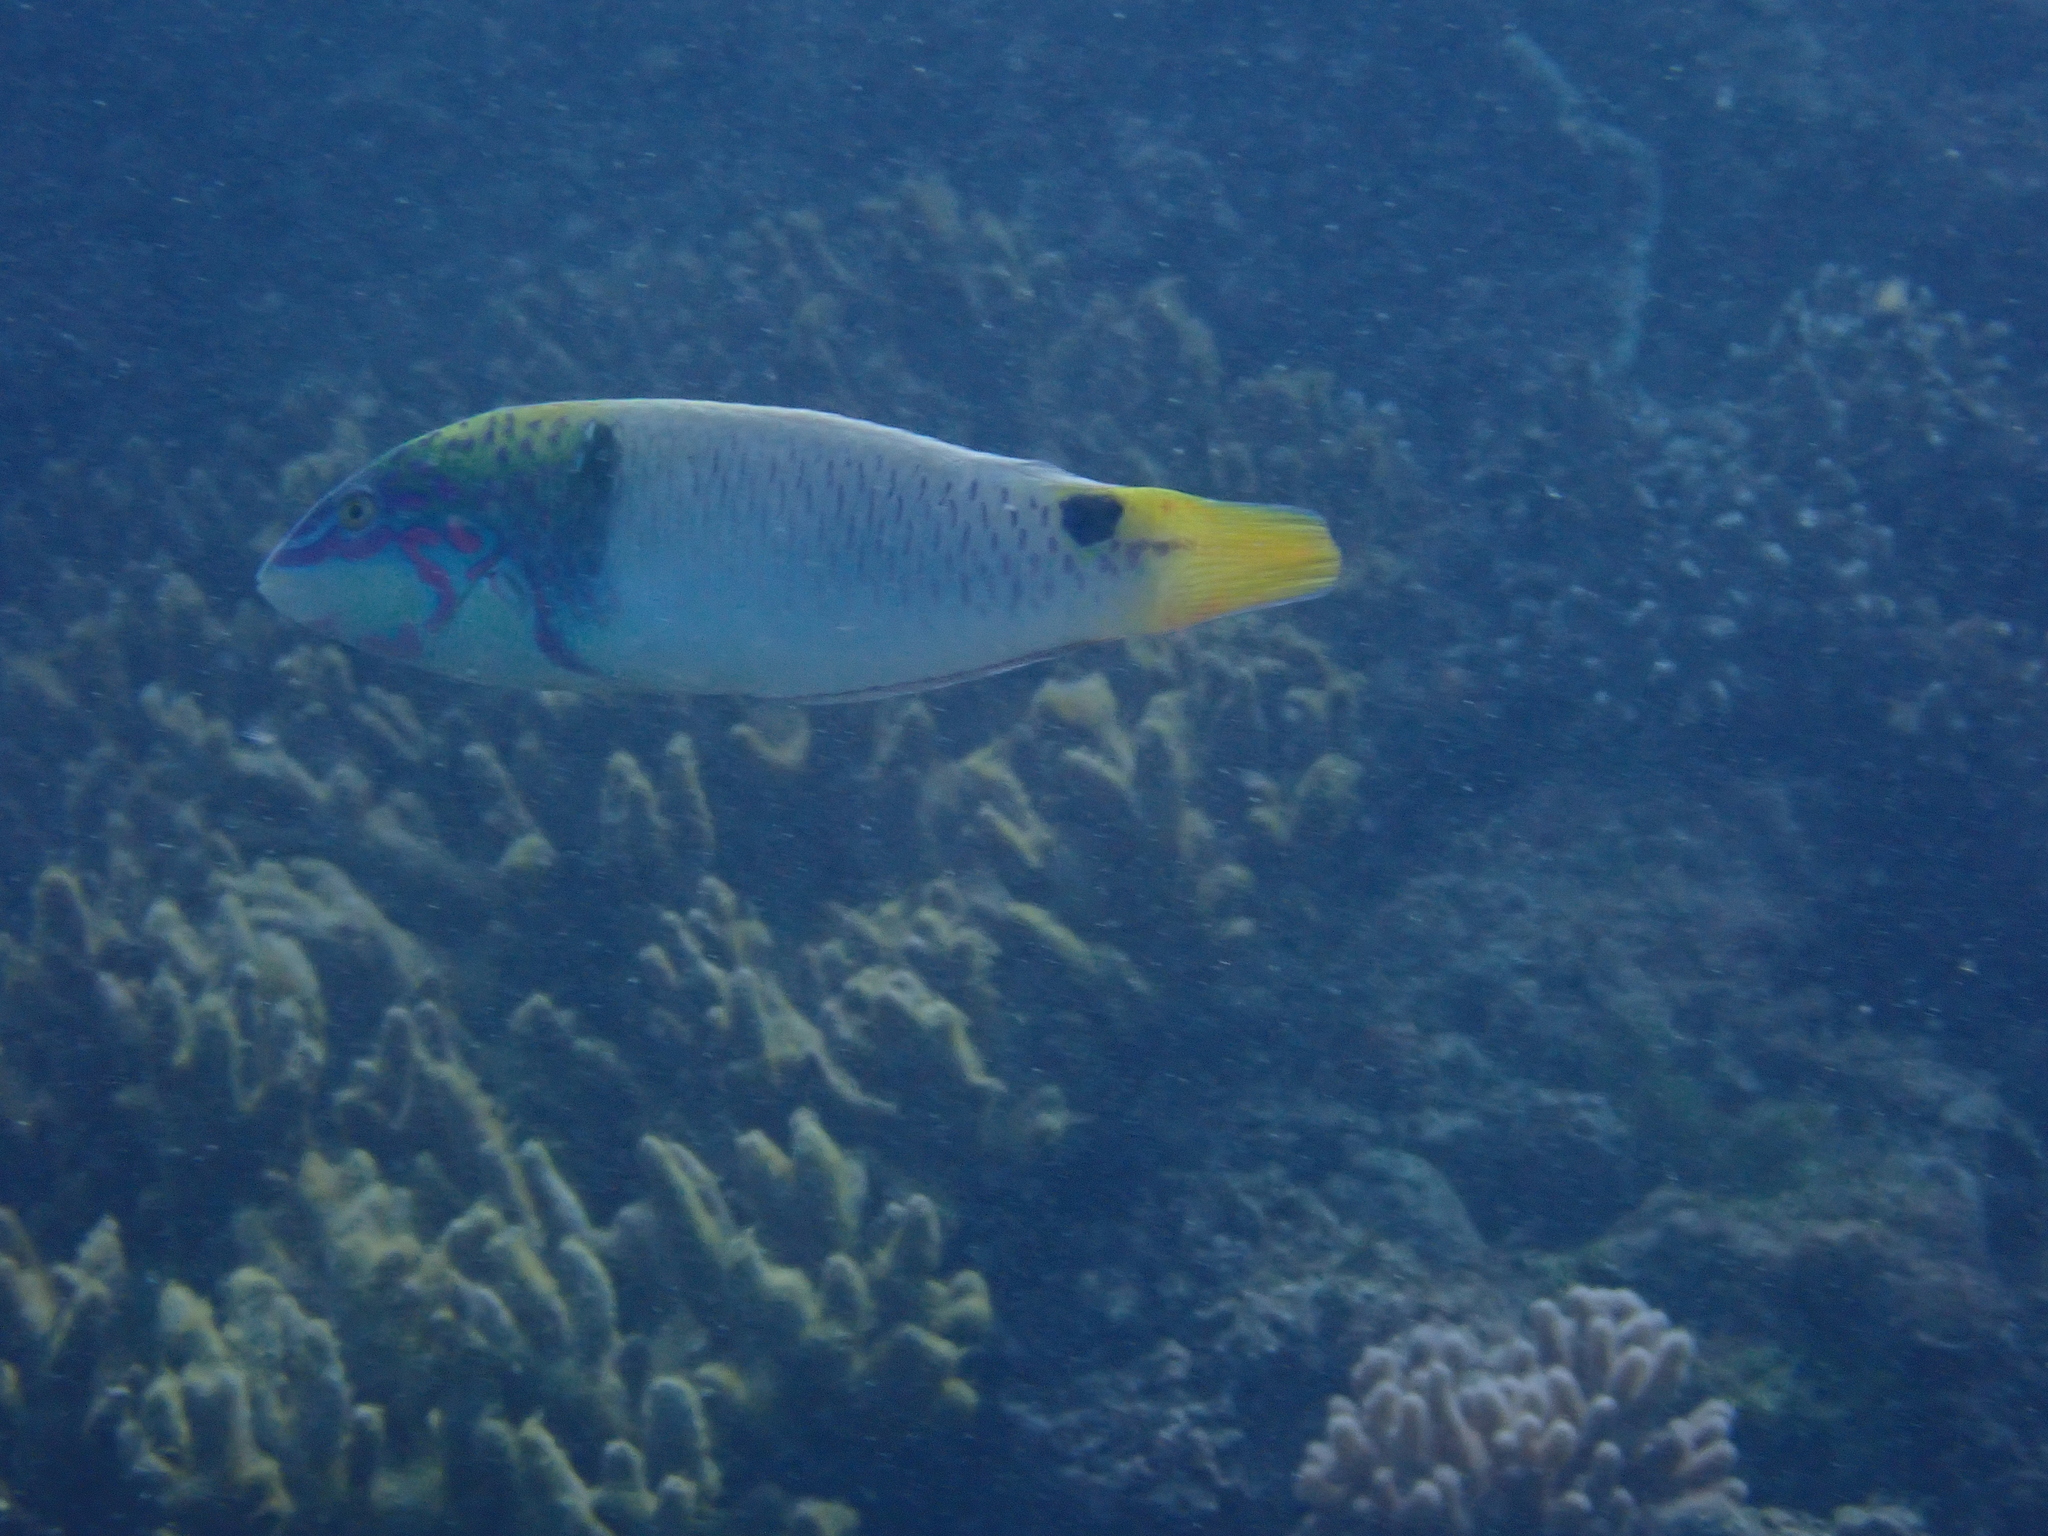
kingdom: Animalia
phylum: Chordata
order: Perciformes
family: Labridae
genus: Halichoeres
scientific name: Halichoeres trimaculatus
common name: Three-spot wrasse
